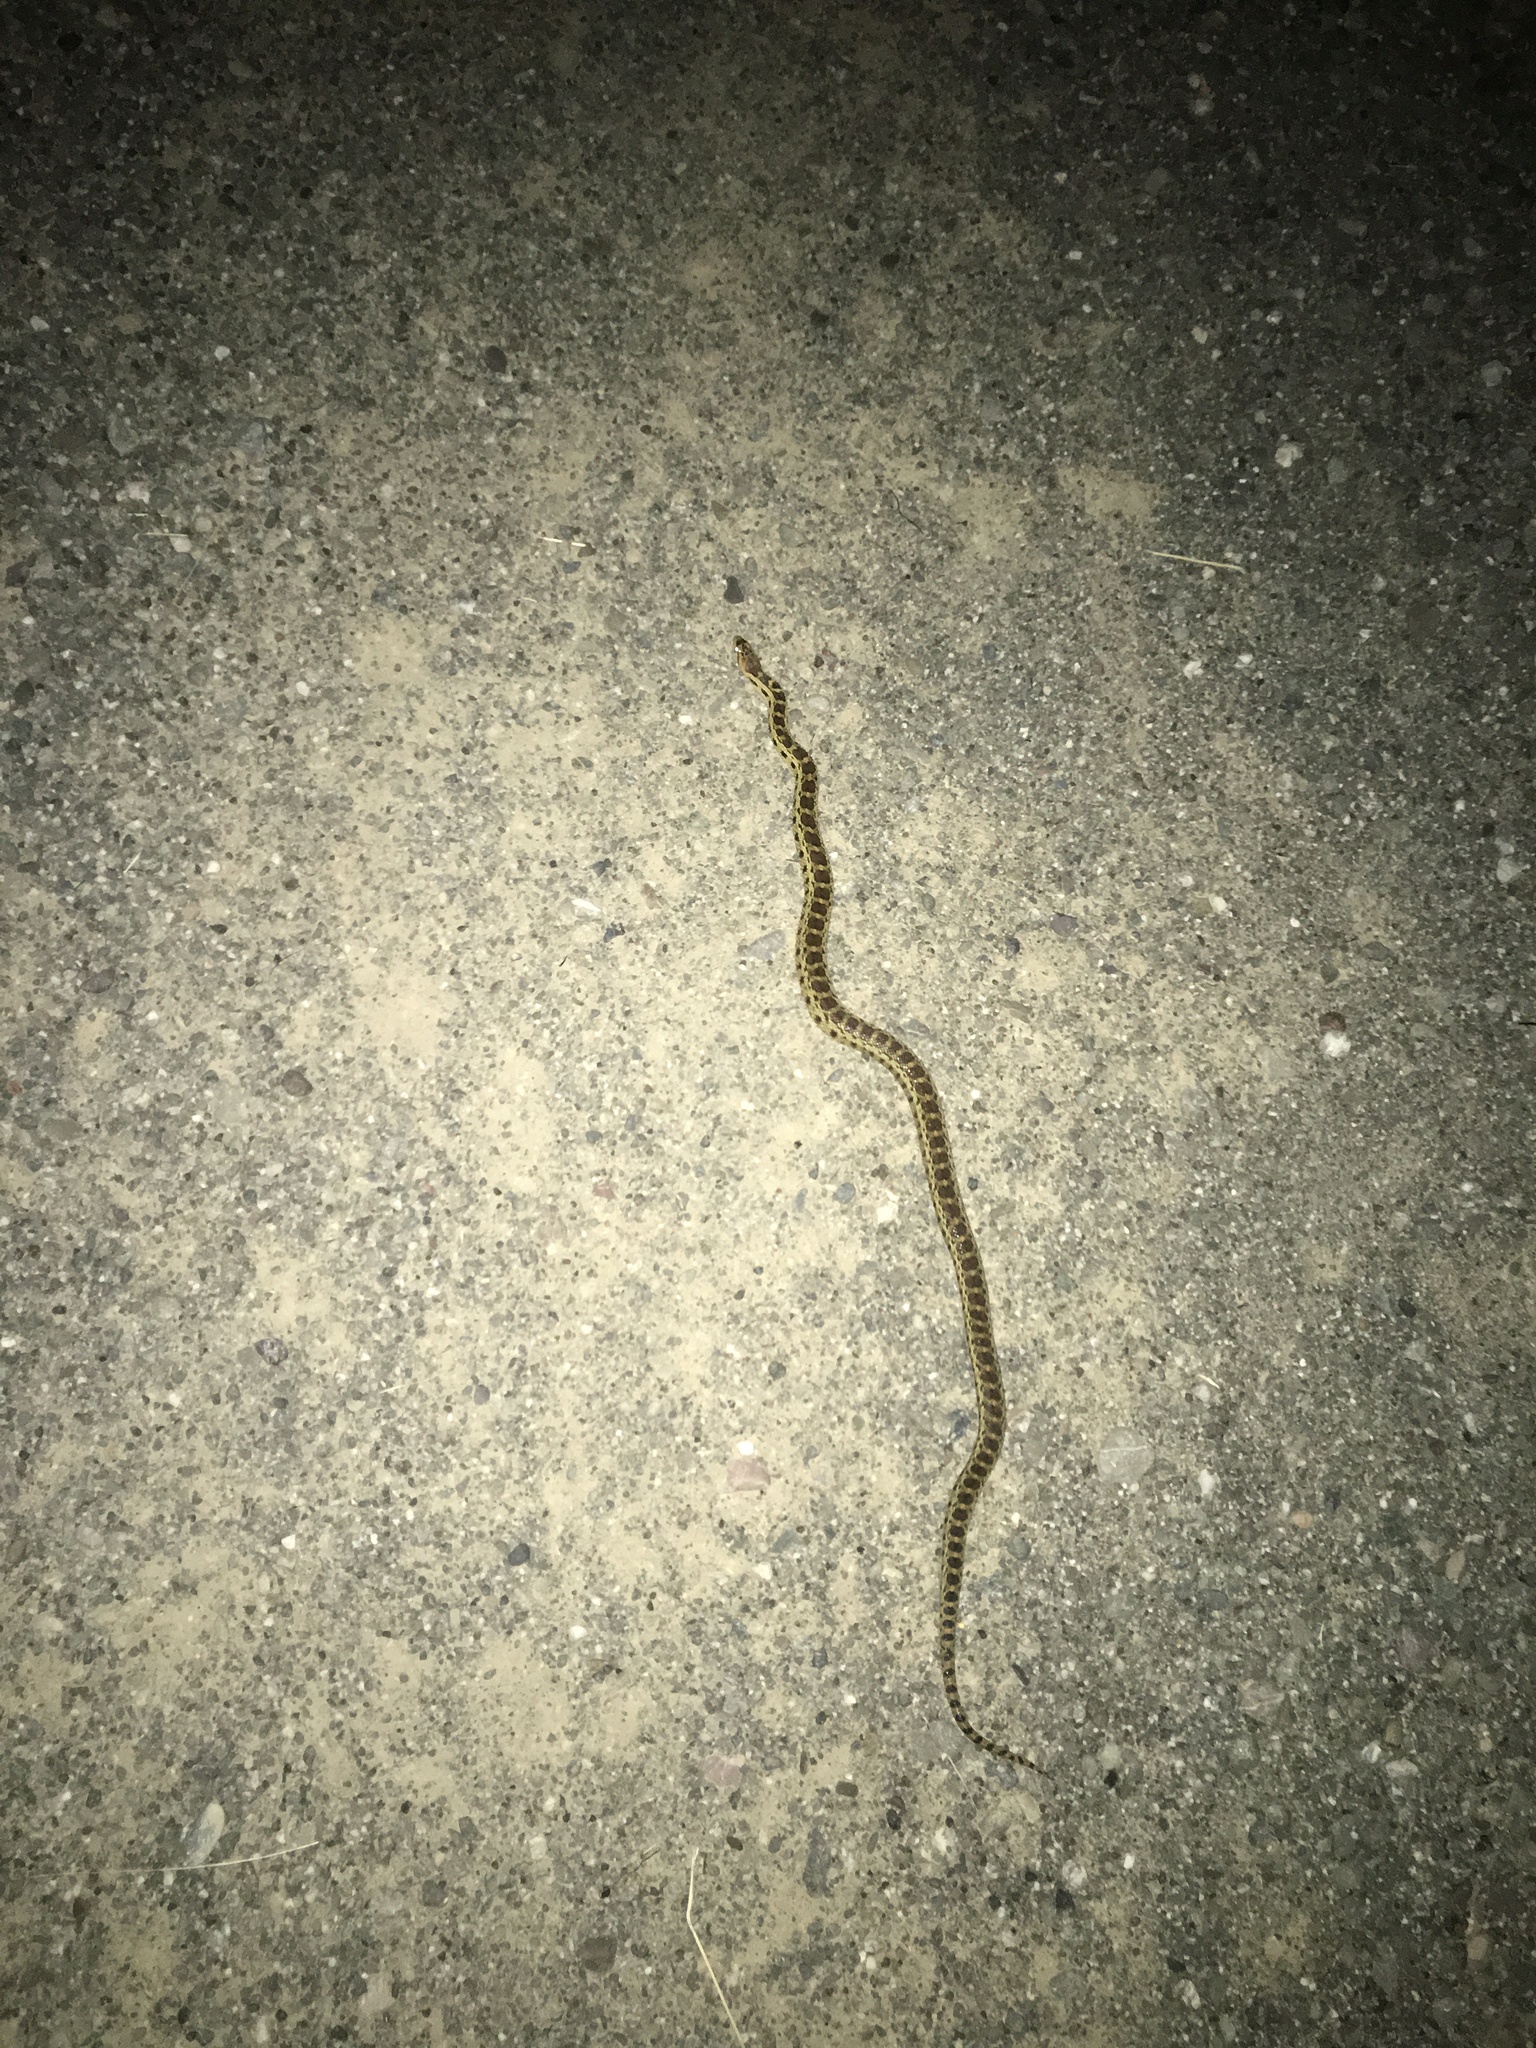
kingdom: Animalia
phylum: Chordata
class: Squamata
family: Colubridae
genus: Pituophis
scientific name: Pituophis catenifer
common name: Gopher snake
